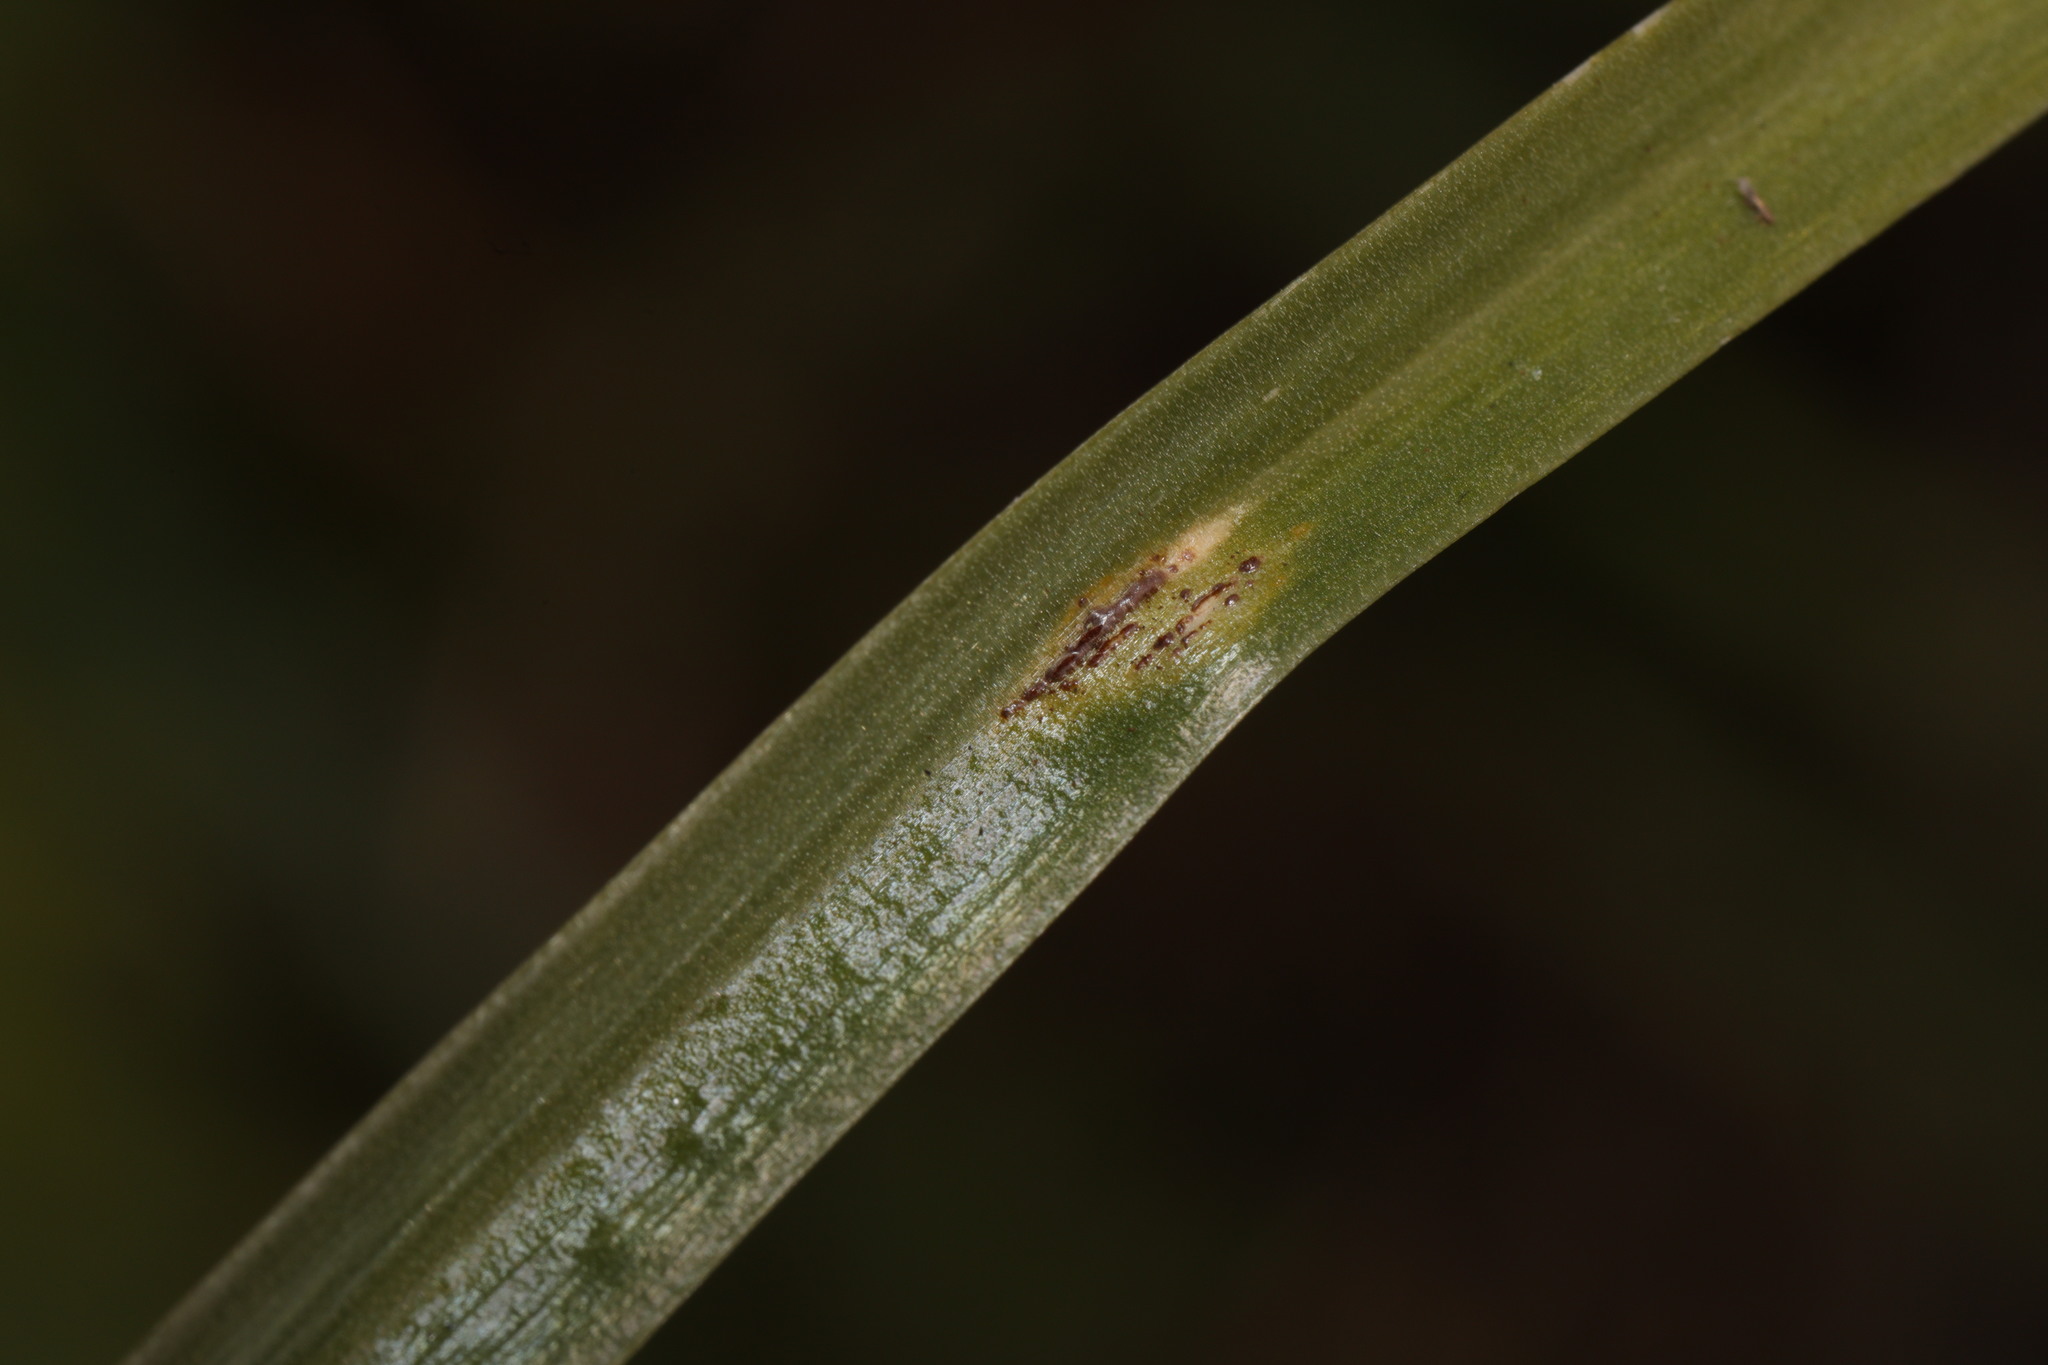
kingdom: Fungi
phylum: Basidiomycota
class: Pucciniomycetes
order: Pucciniales
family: Pucciniaceae
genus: Uromyces
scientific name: Uromyces hyacinthi
